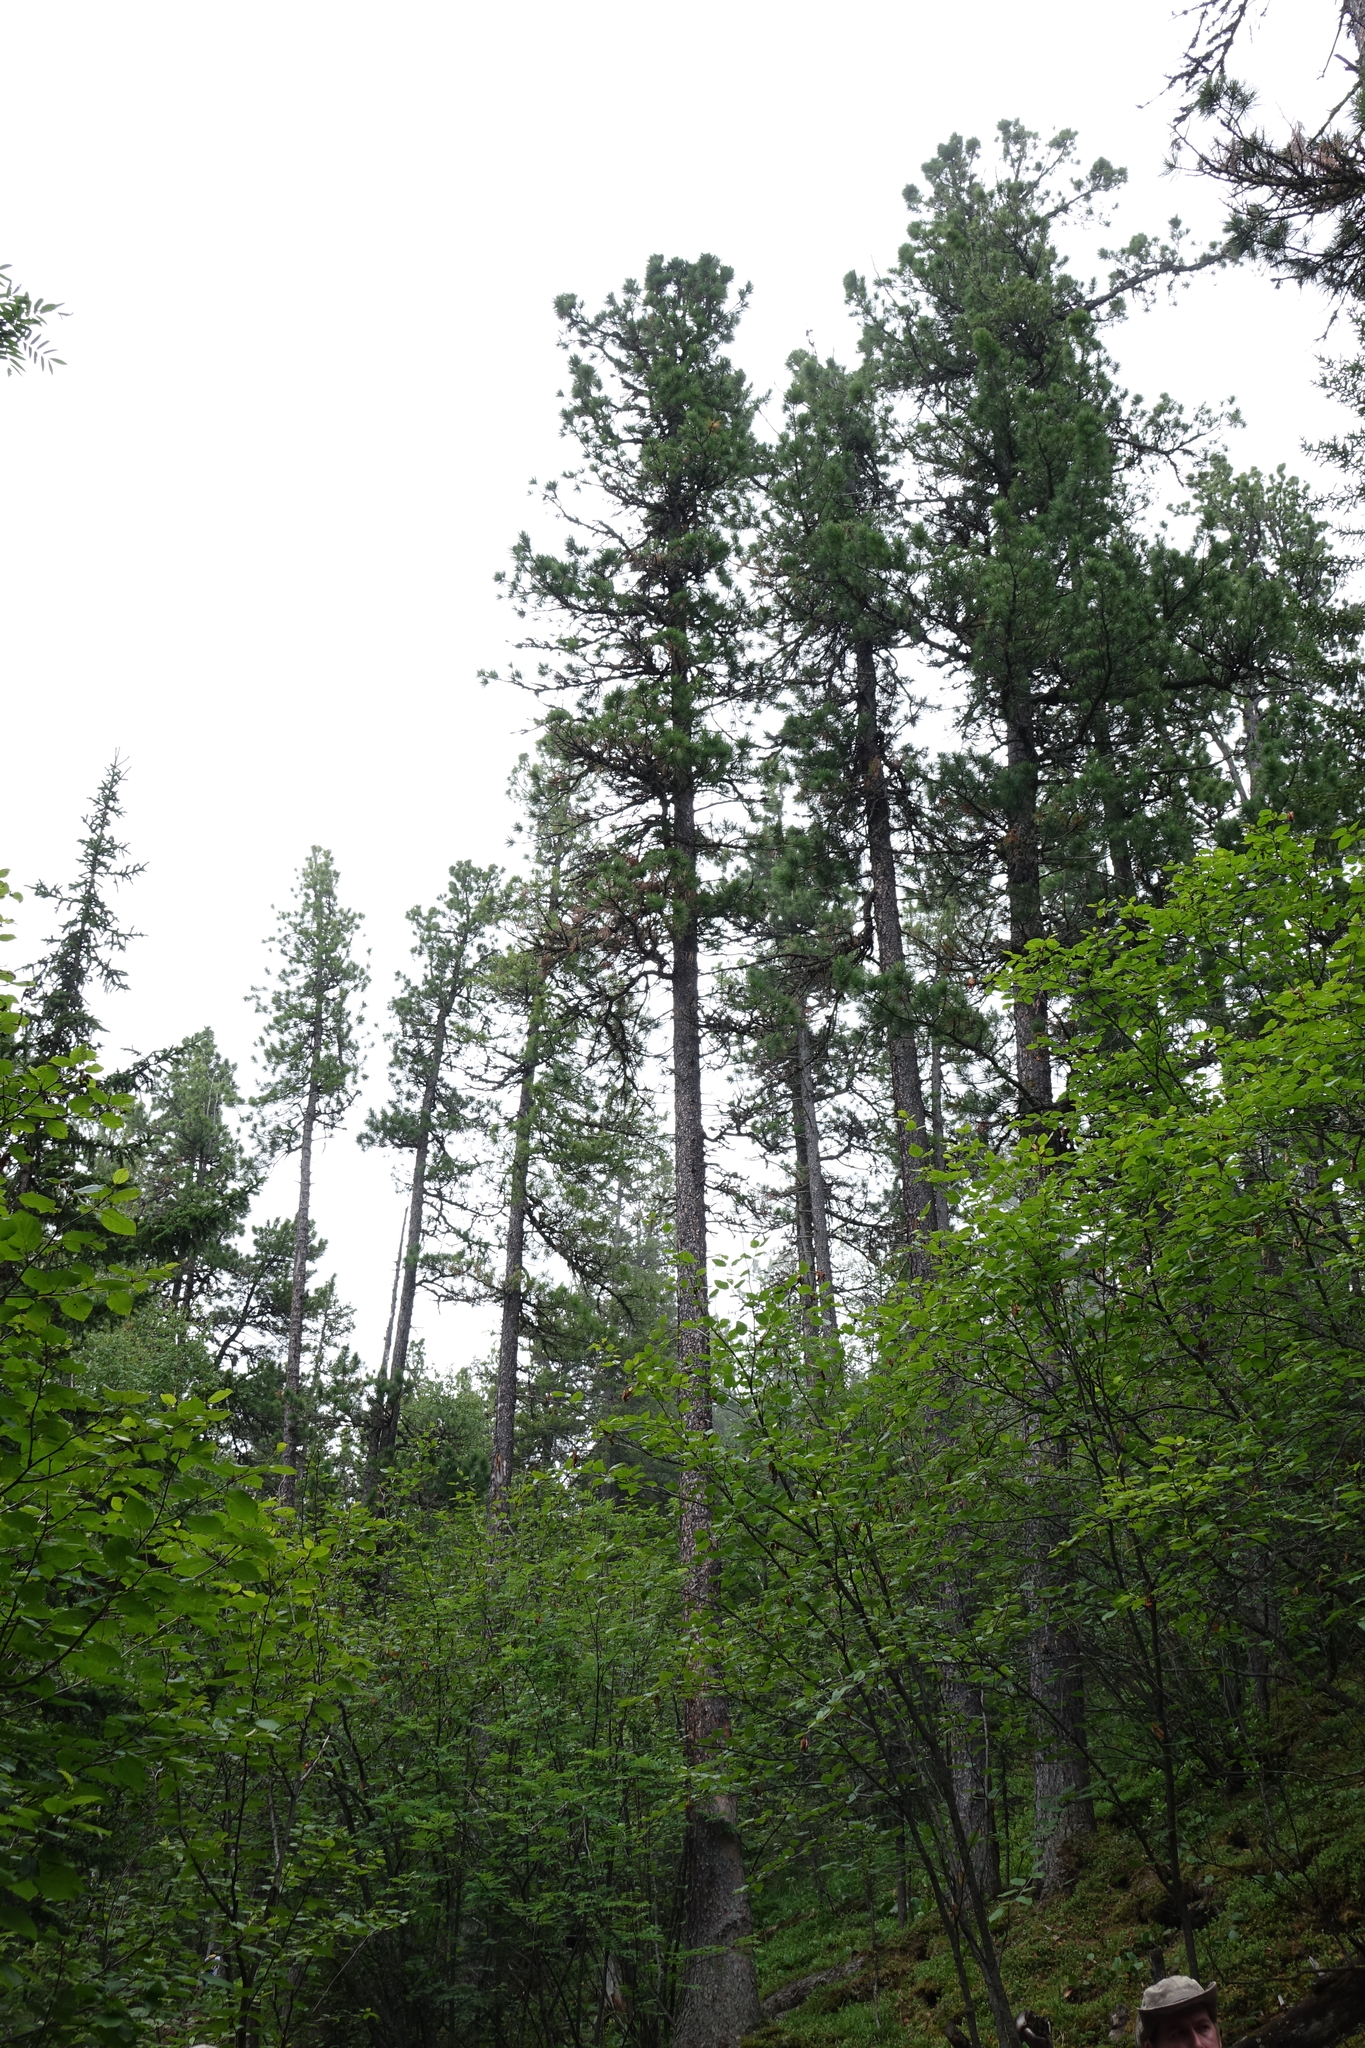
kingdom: Plantae
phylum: Tracheophyta
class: Magnoliopsida
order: Ericales
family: Ericaceae
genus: Rhododendron
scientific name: Rhododendron dauricum
